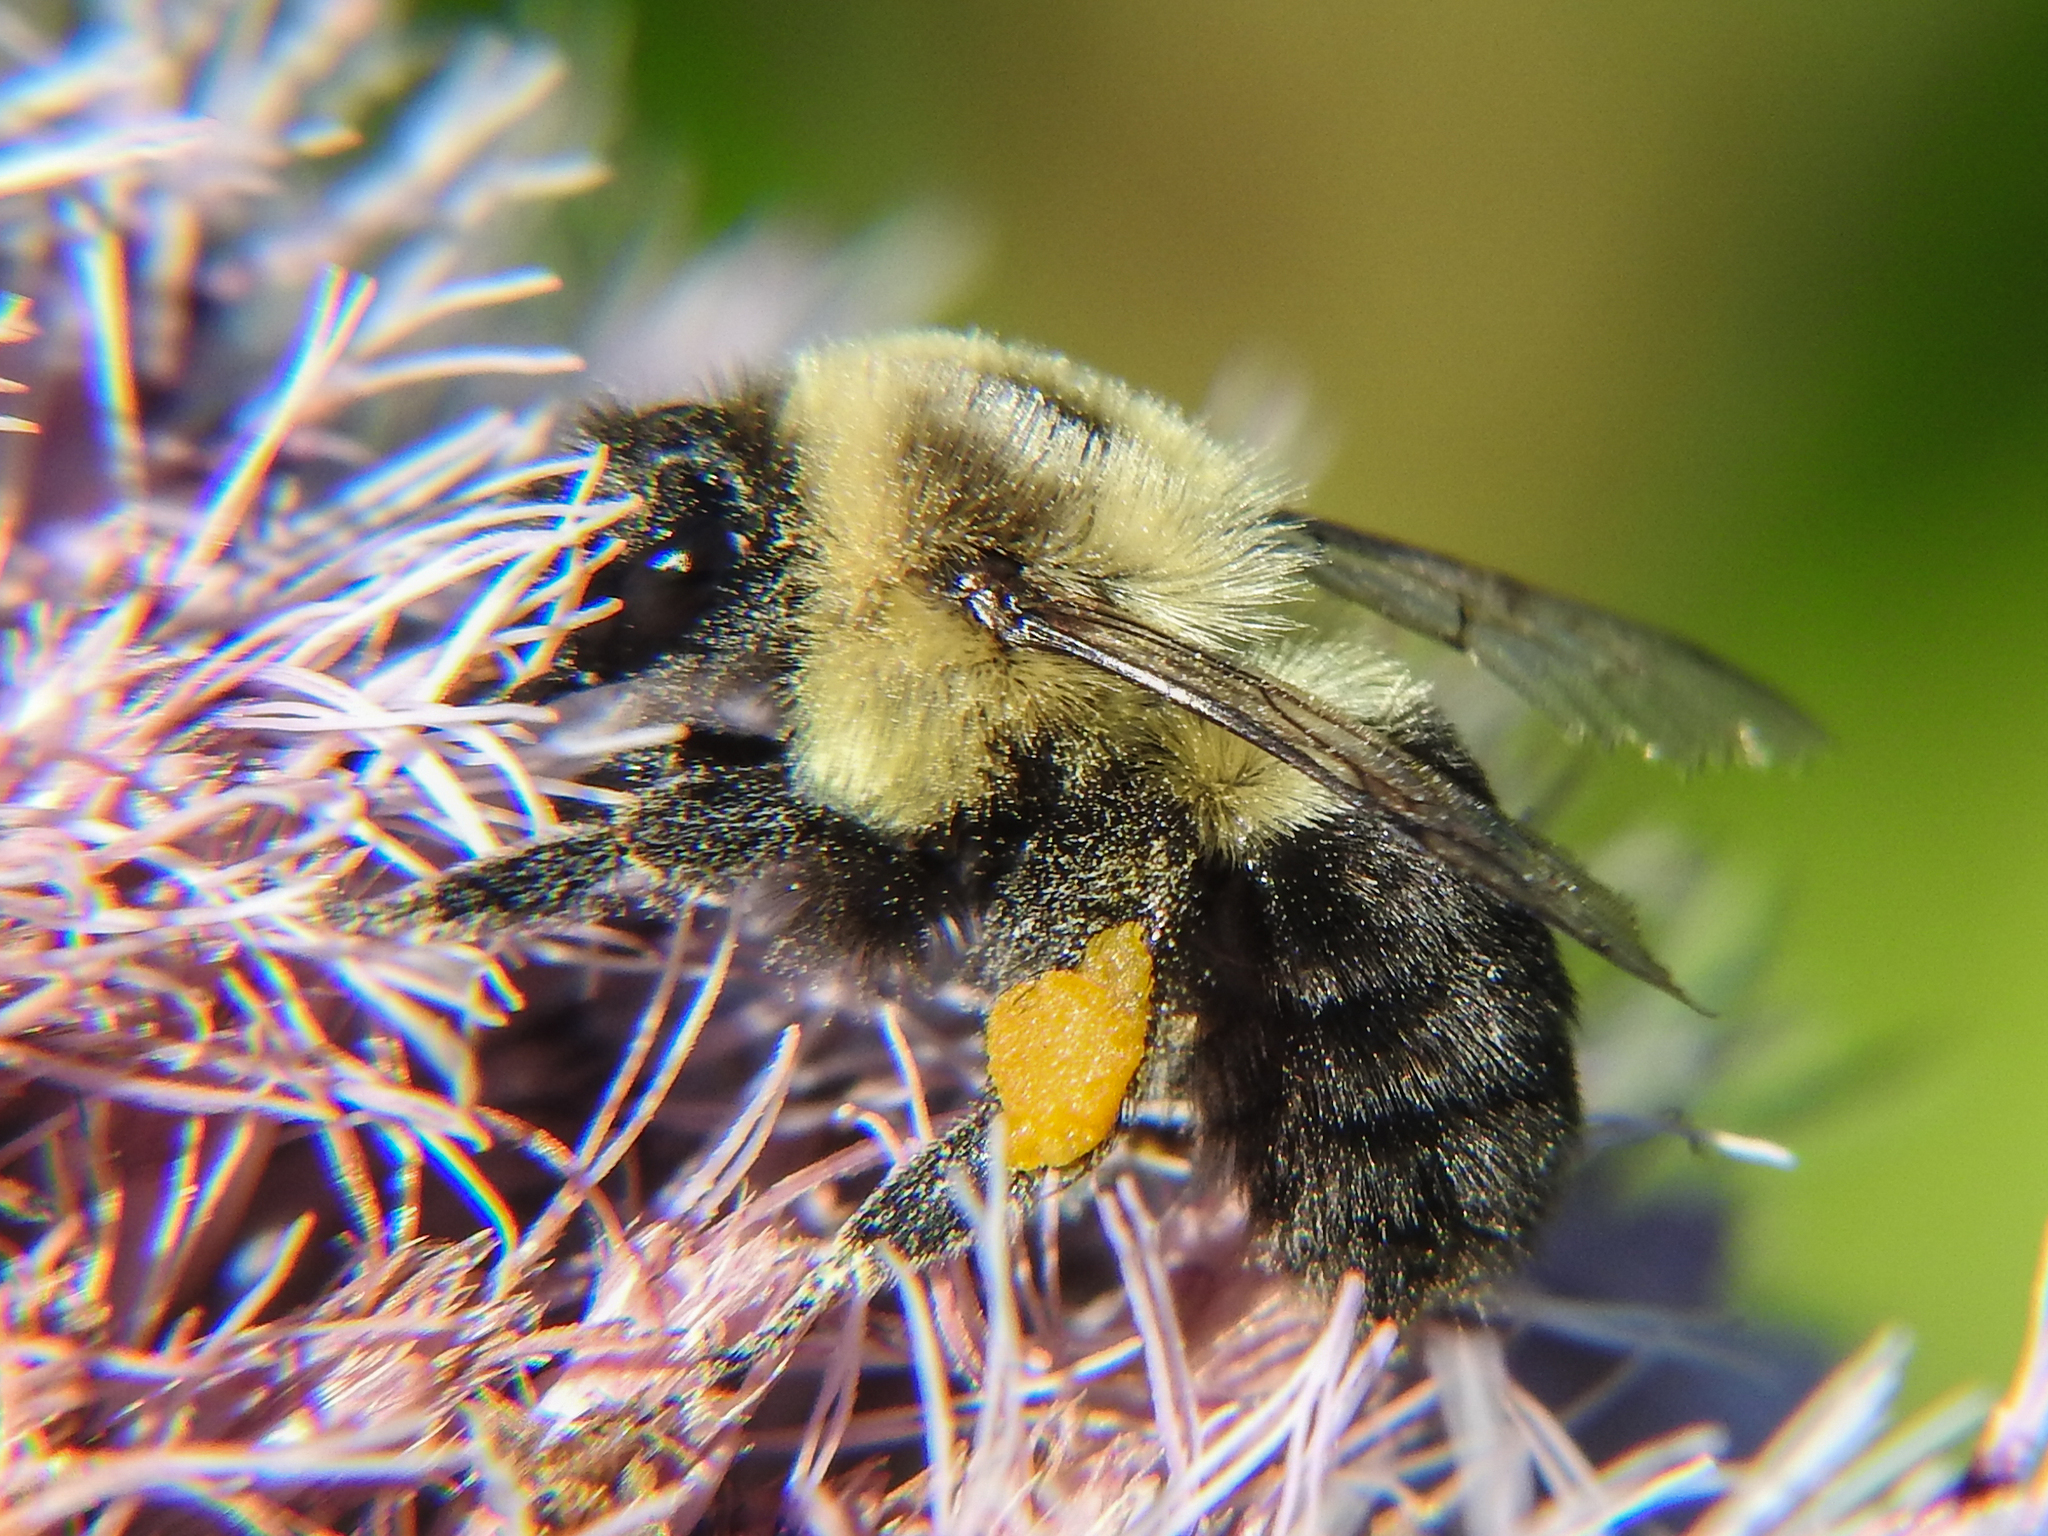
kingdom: Animalia
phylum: Arthropoda
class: Insecta
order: Hymenoptera
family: Apidae
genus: Bombus
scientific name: Bombus impatiens
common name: Common eastern bumble bee
